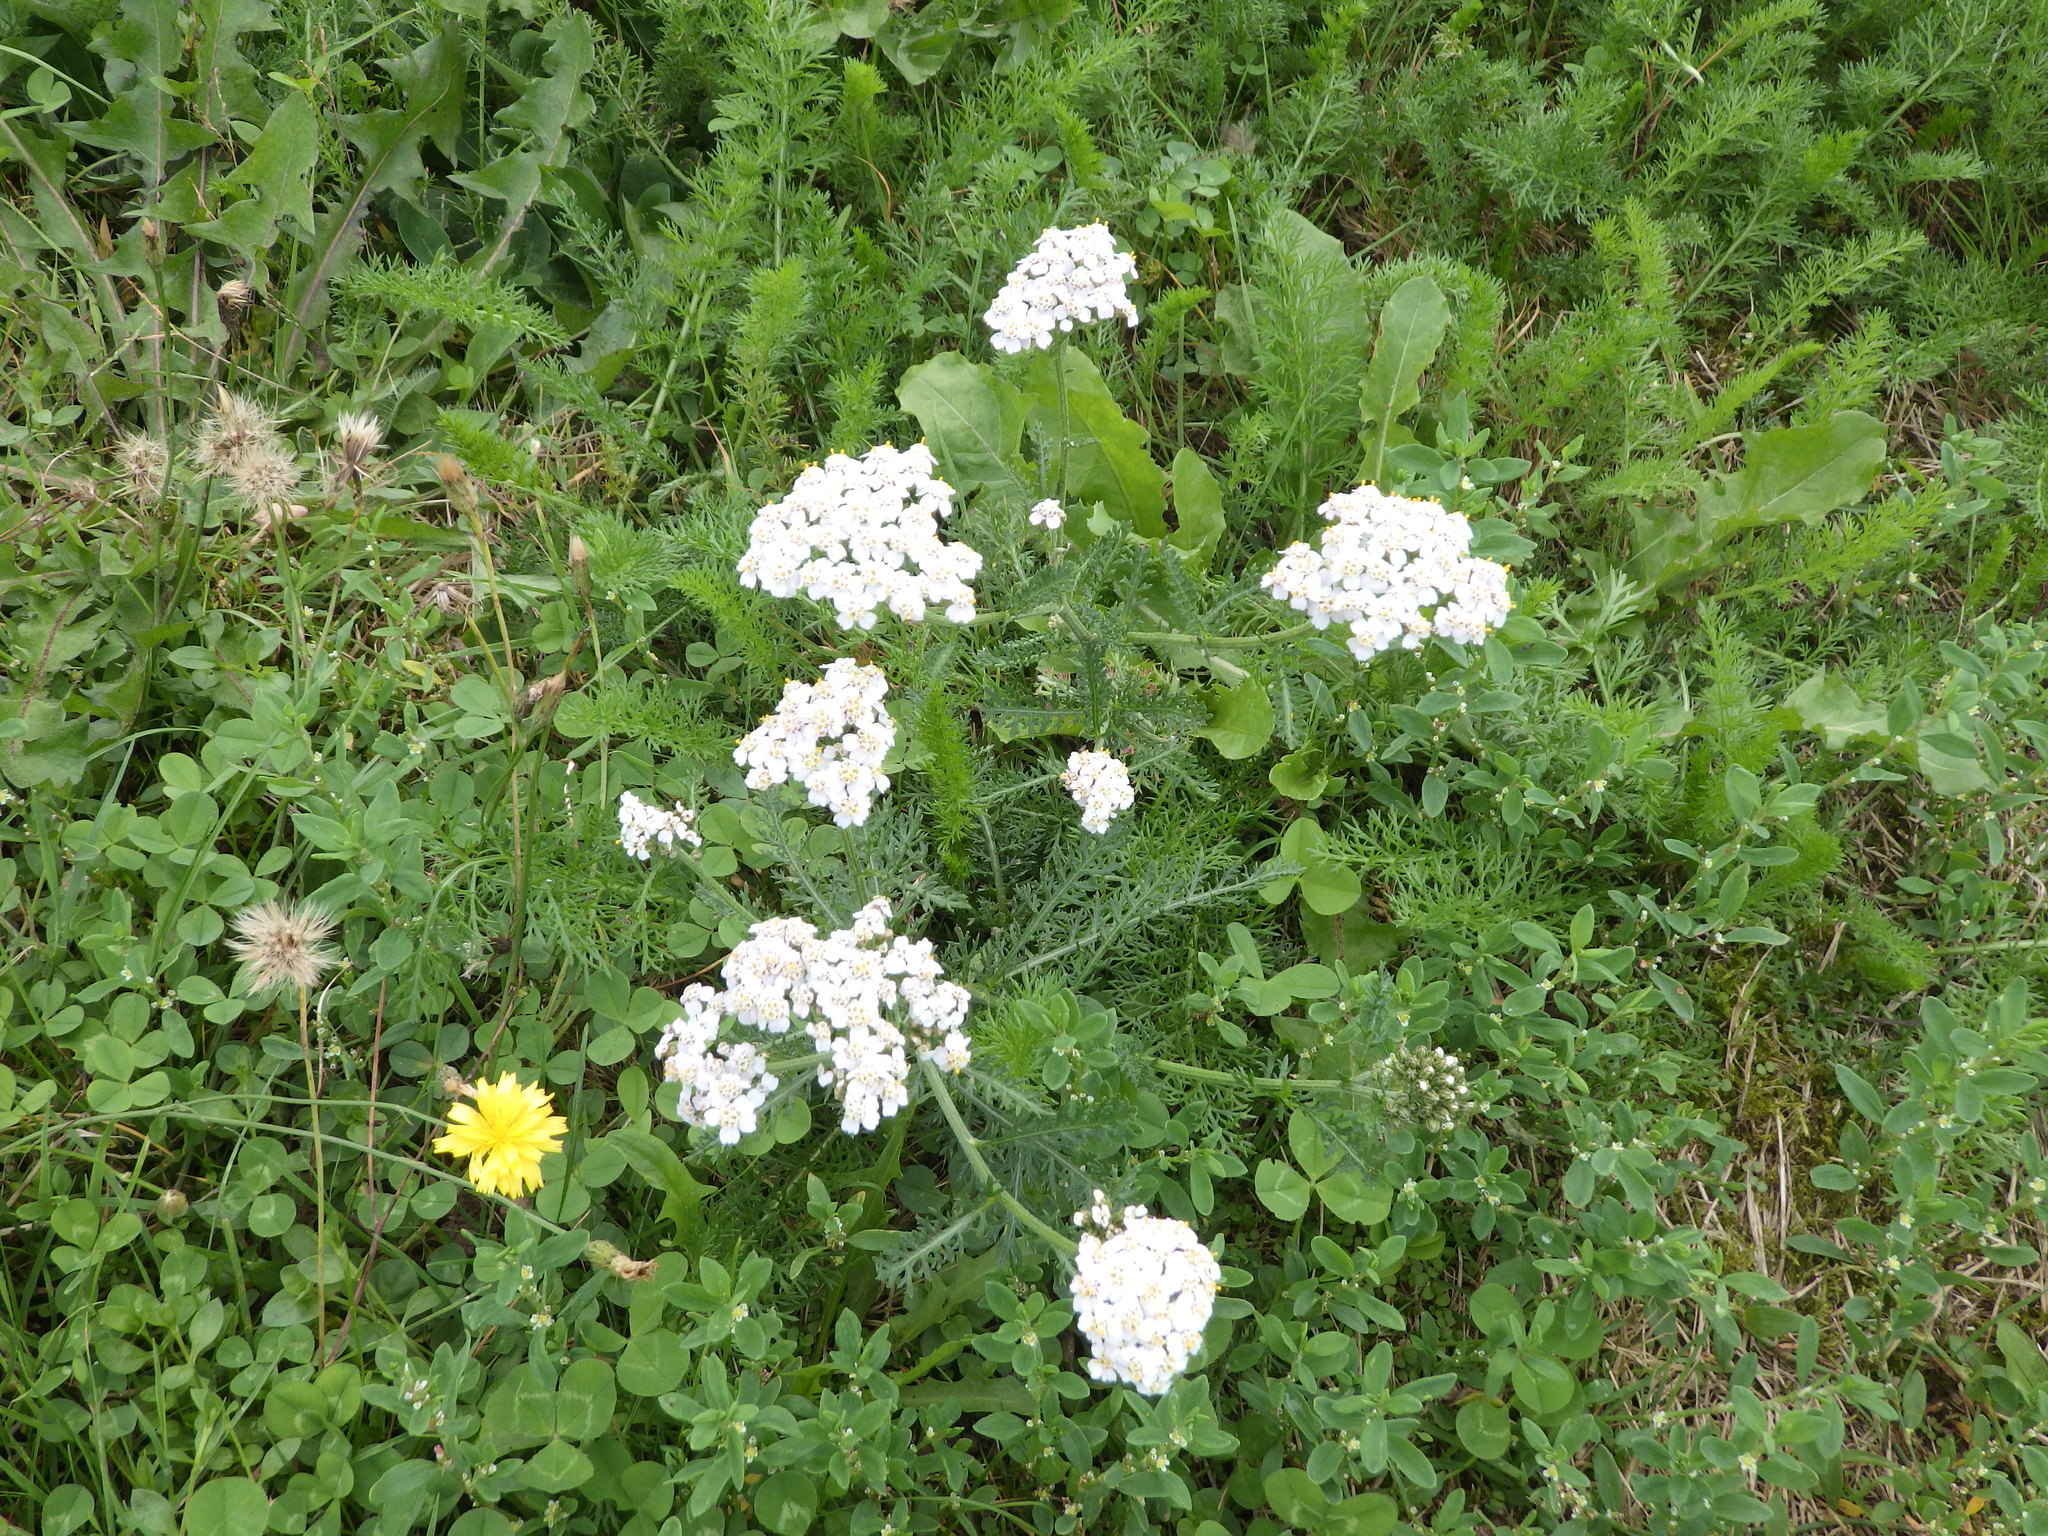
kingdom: Plantae
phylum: Tracheophyta
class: Magnoliopsida
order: Asterales
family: Asteraceae
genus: Achillea
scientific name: Achillea millefolium
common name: Yarrow
